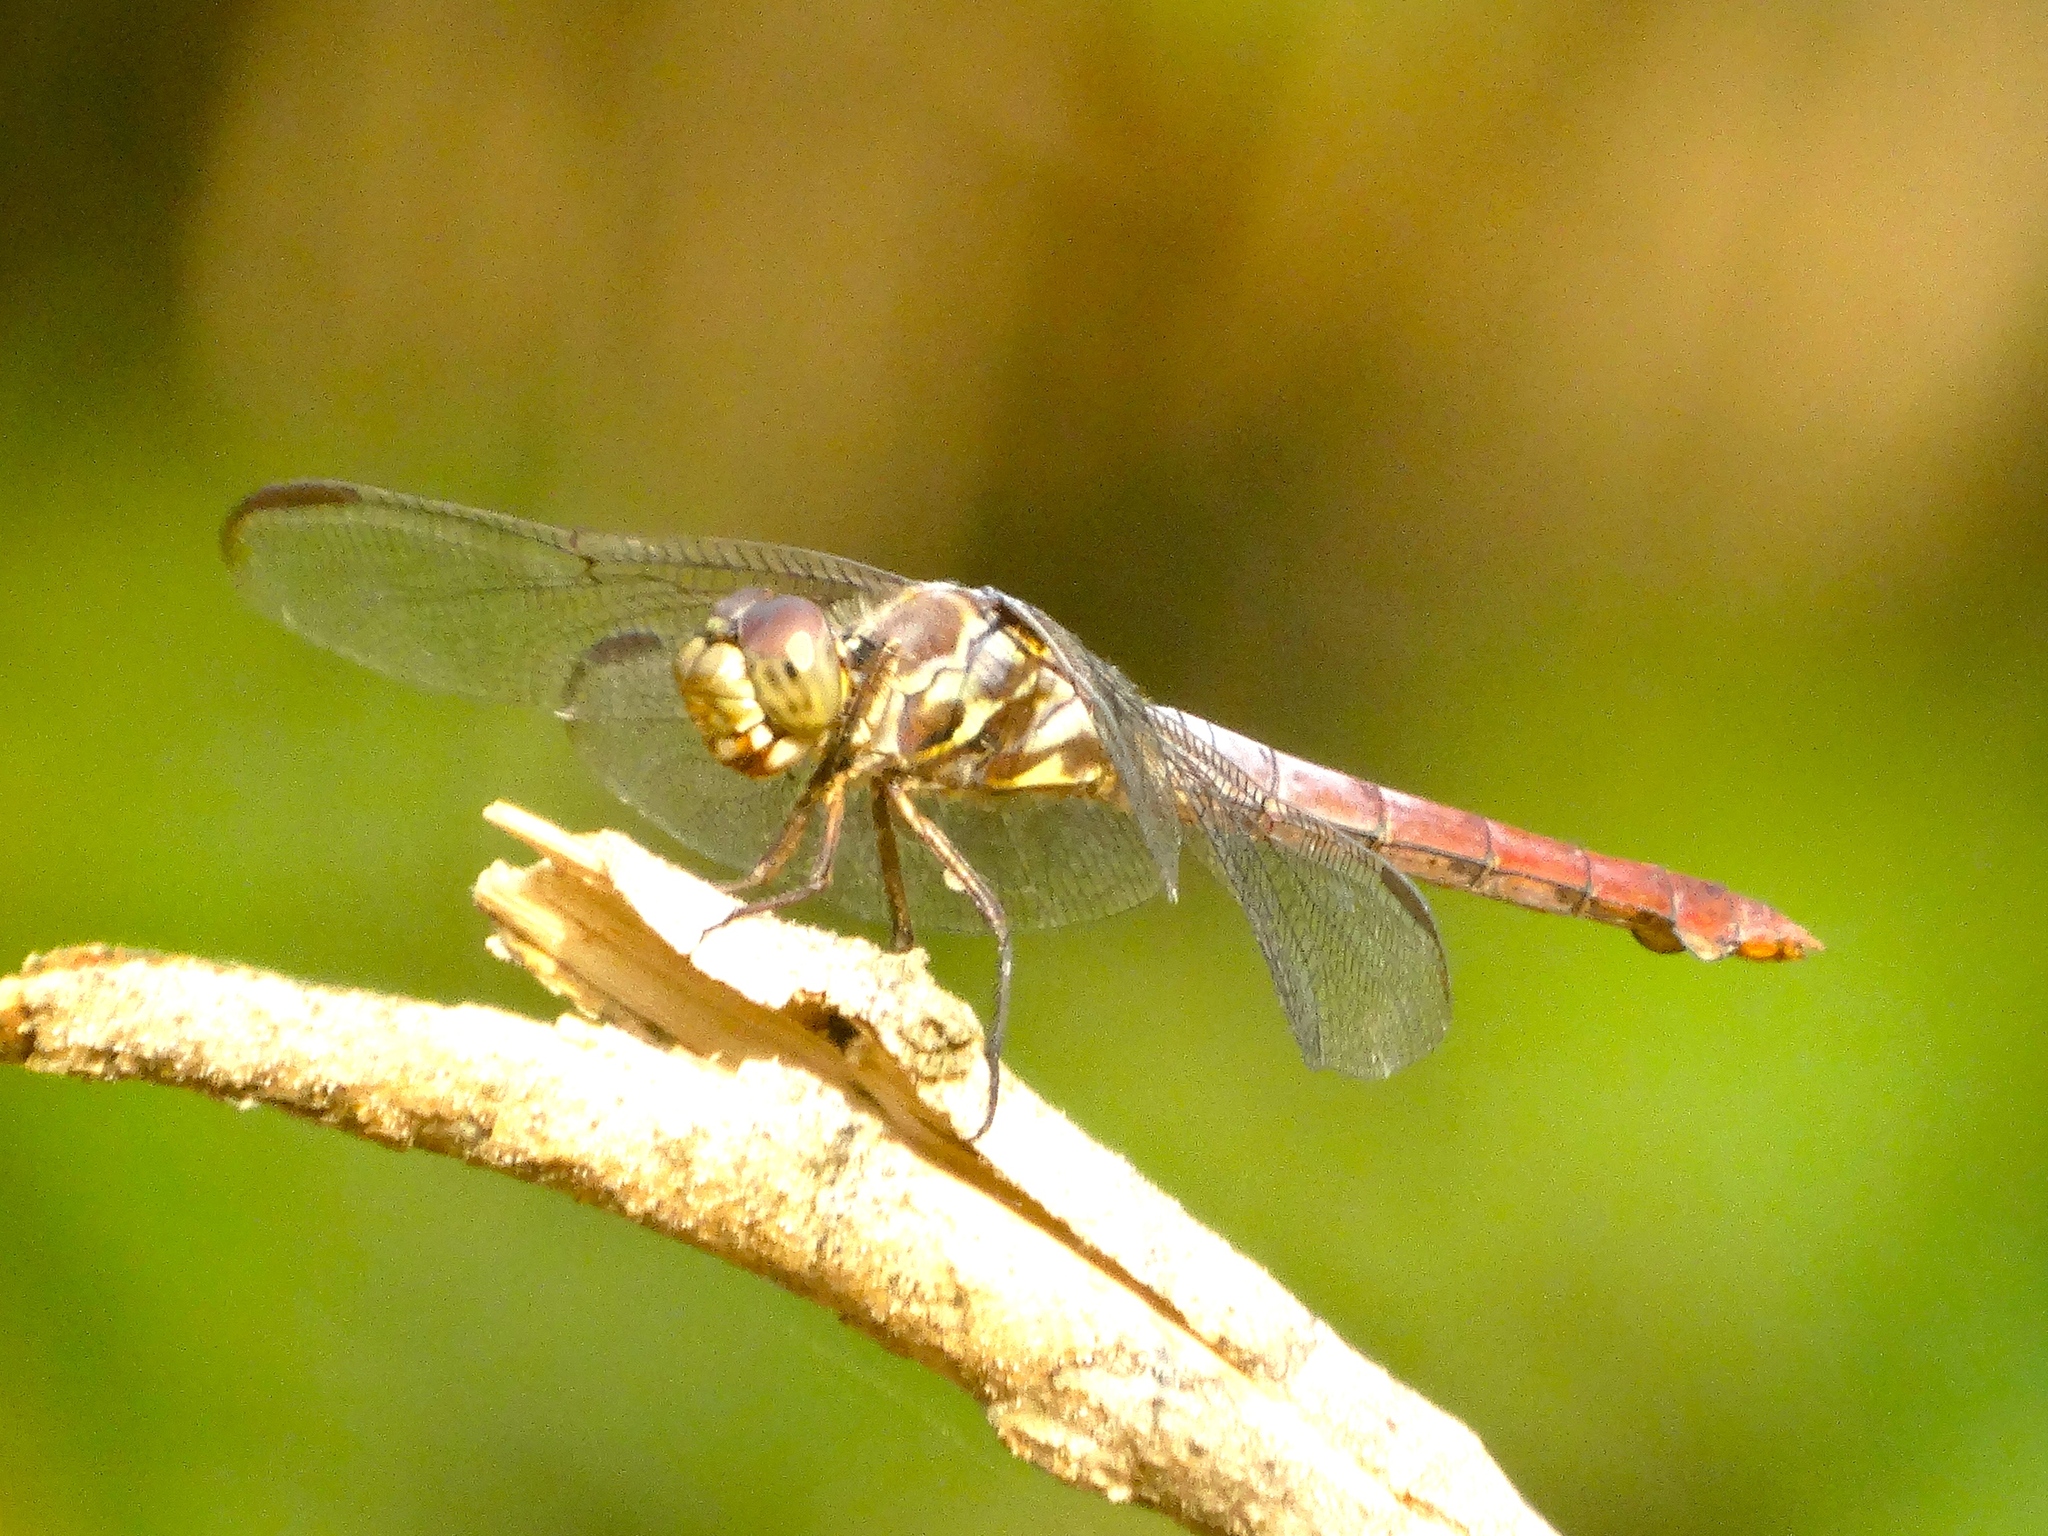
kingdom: Animalia
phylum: Arthropoda
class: Insecta
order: Odonata
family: Libellulidae
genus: Orthemis
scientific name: Orthemis ferruginea
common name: Roseate skimmer
